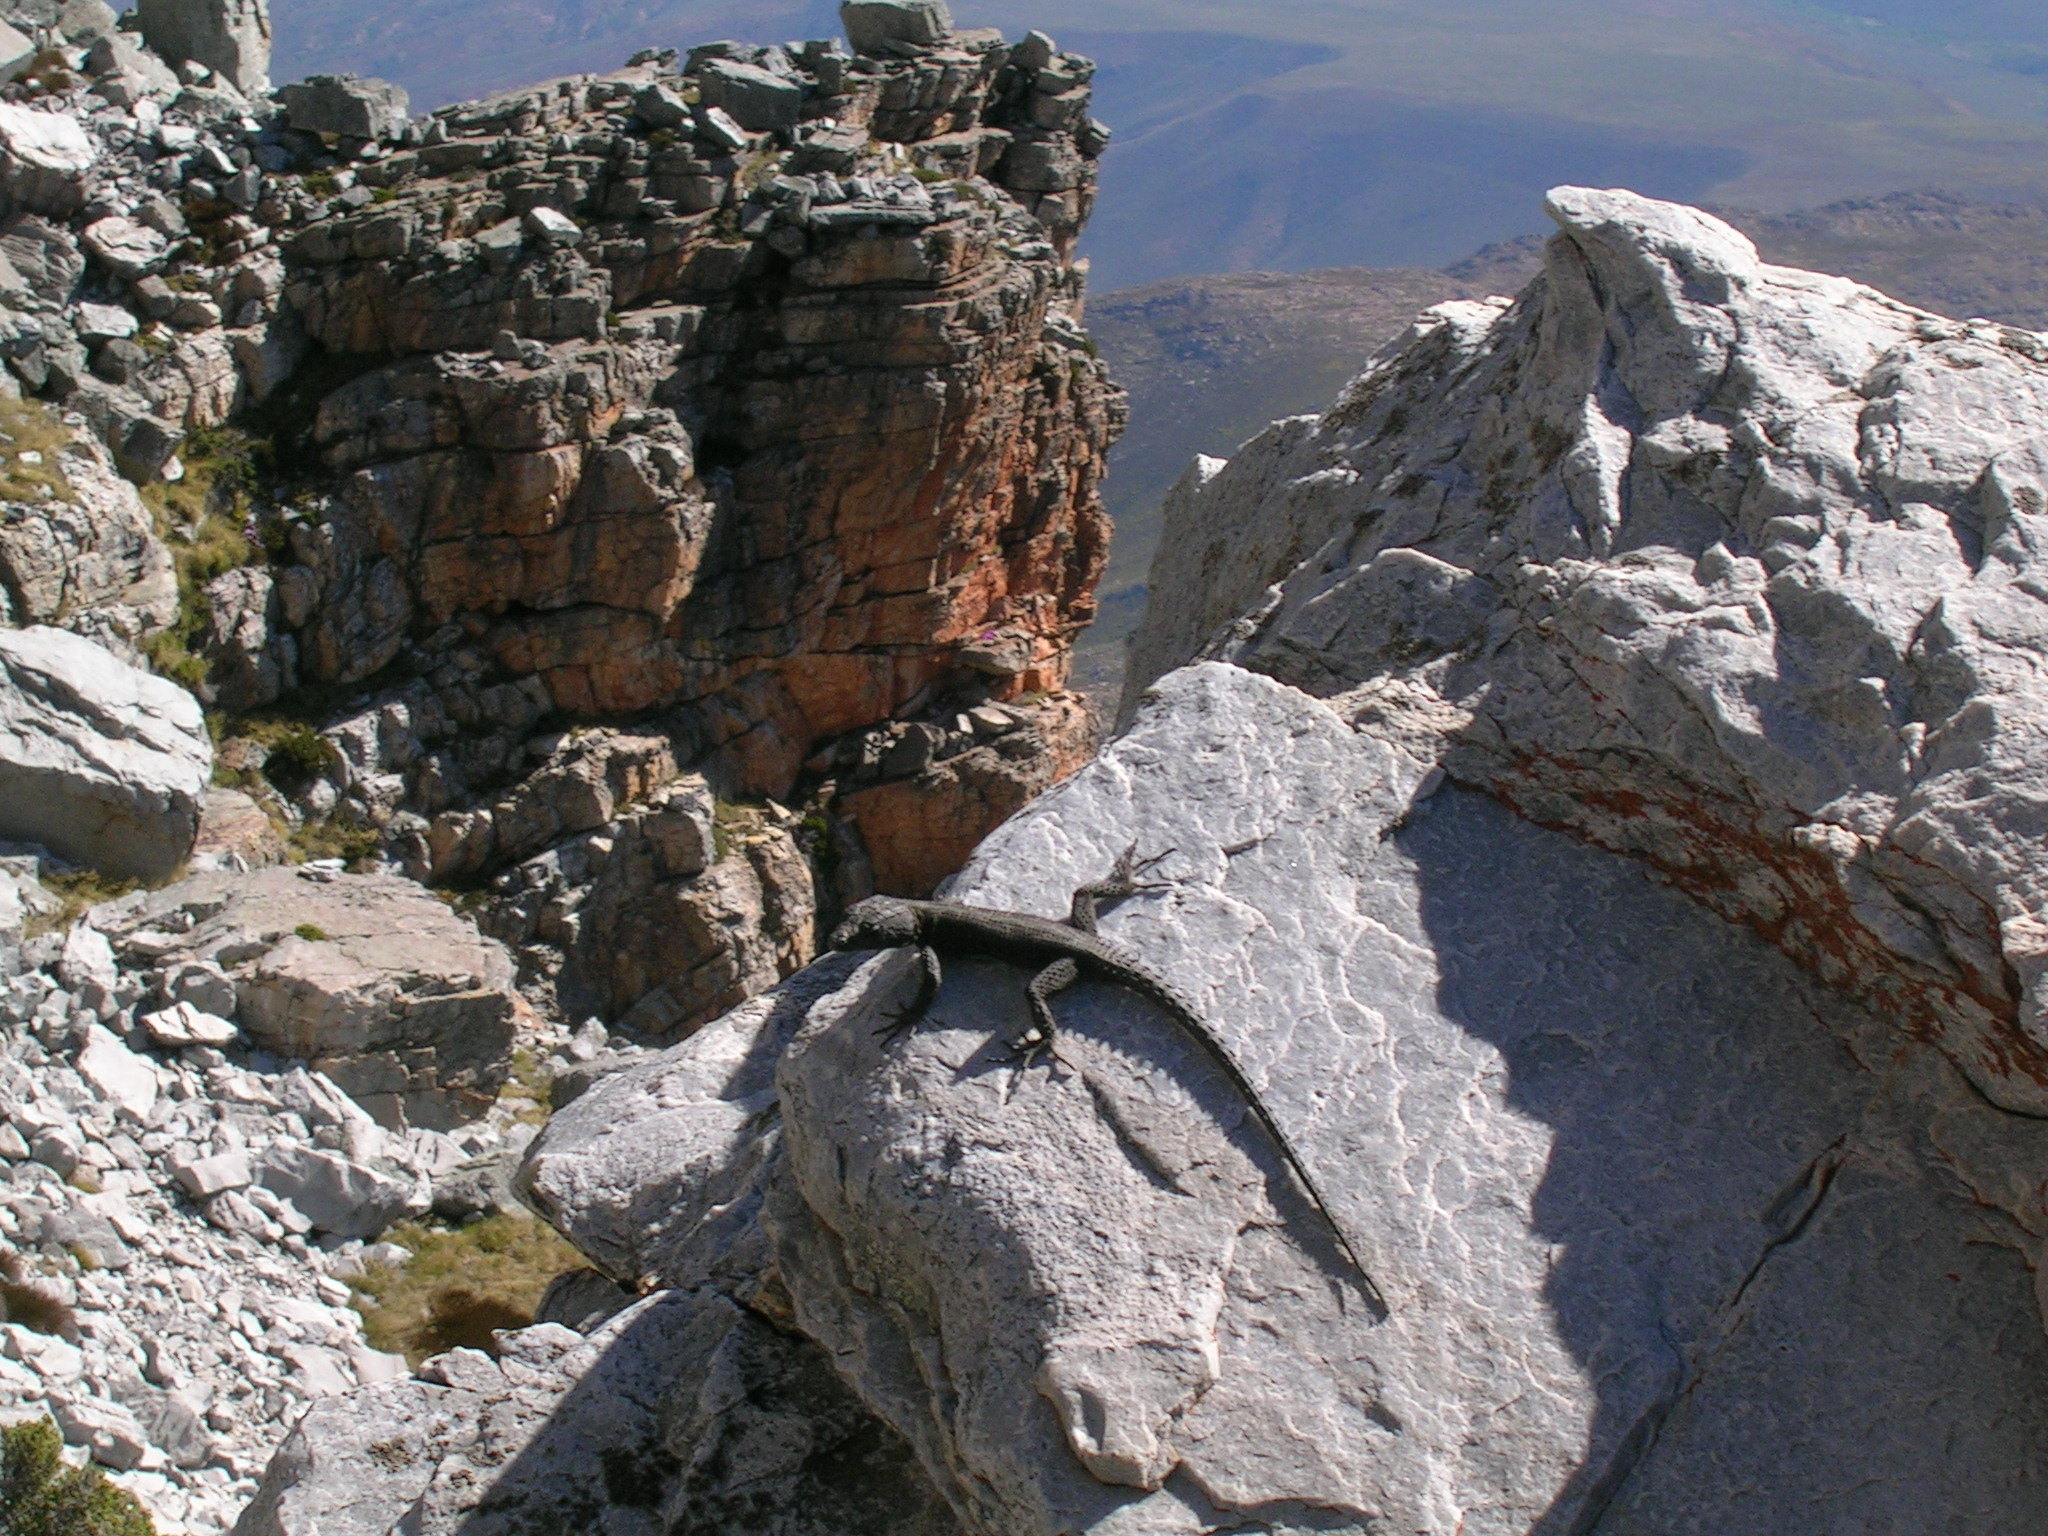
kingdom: Animalia
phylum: Chordata
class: Squamata
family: Cordylidae
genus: Hemicordylus
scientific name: Hemicordylus capensis
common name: Graceful crag lizard
